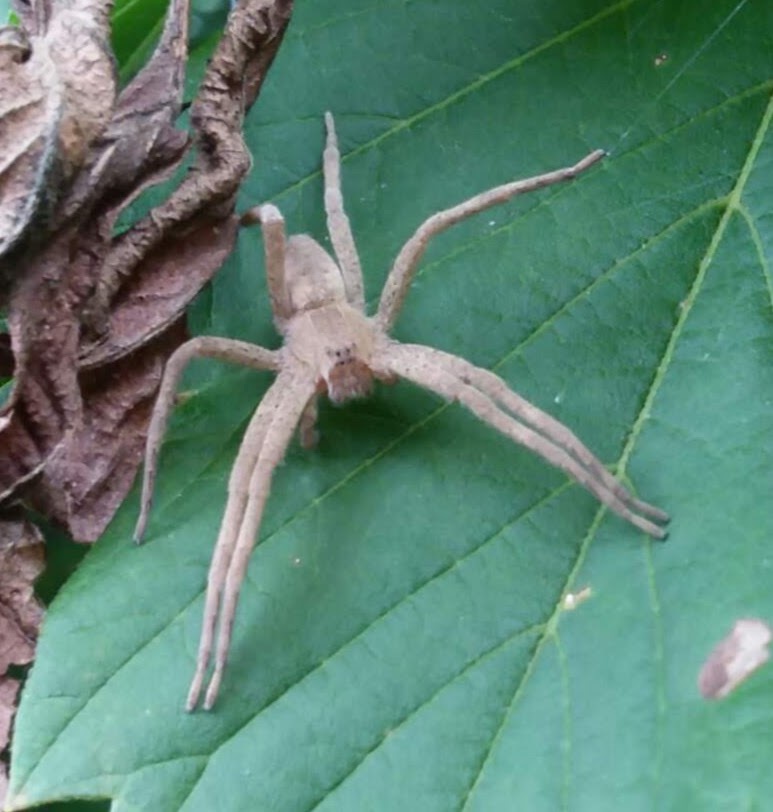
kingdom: Animalia
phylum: Arthropoda
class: Arachnida
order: Araneae
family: Pisauridae
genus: Pisaurina
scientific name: Pisaurina mira
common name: American nursery web spider
